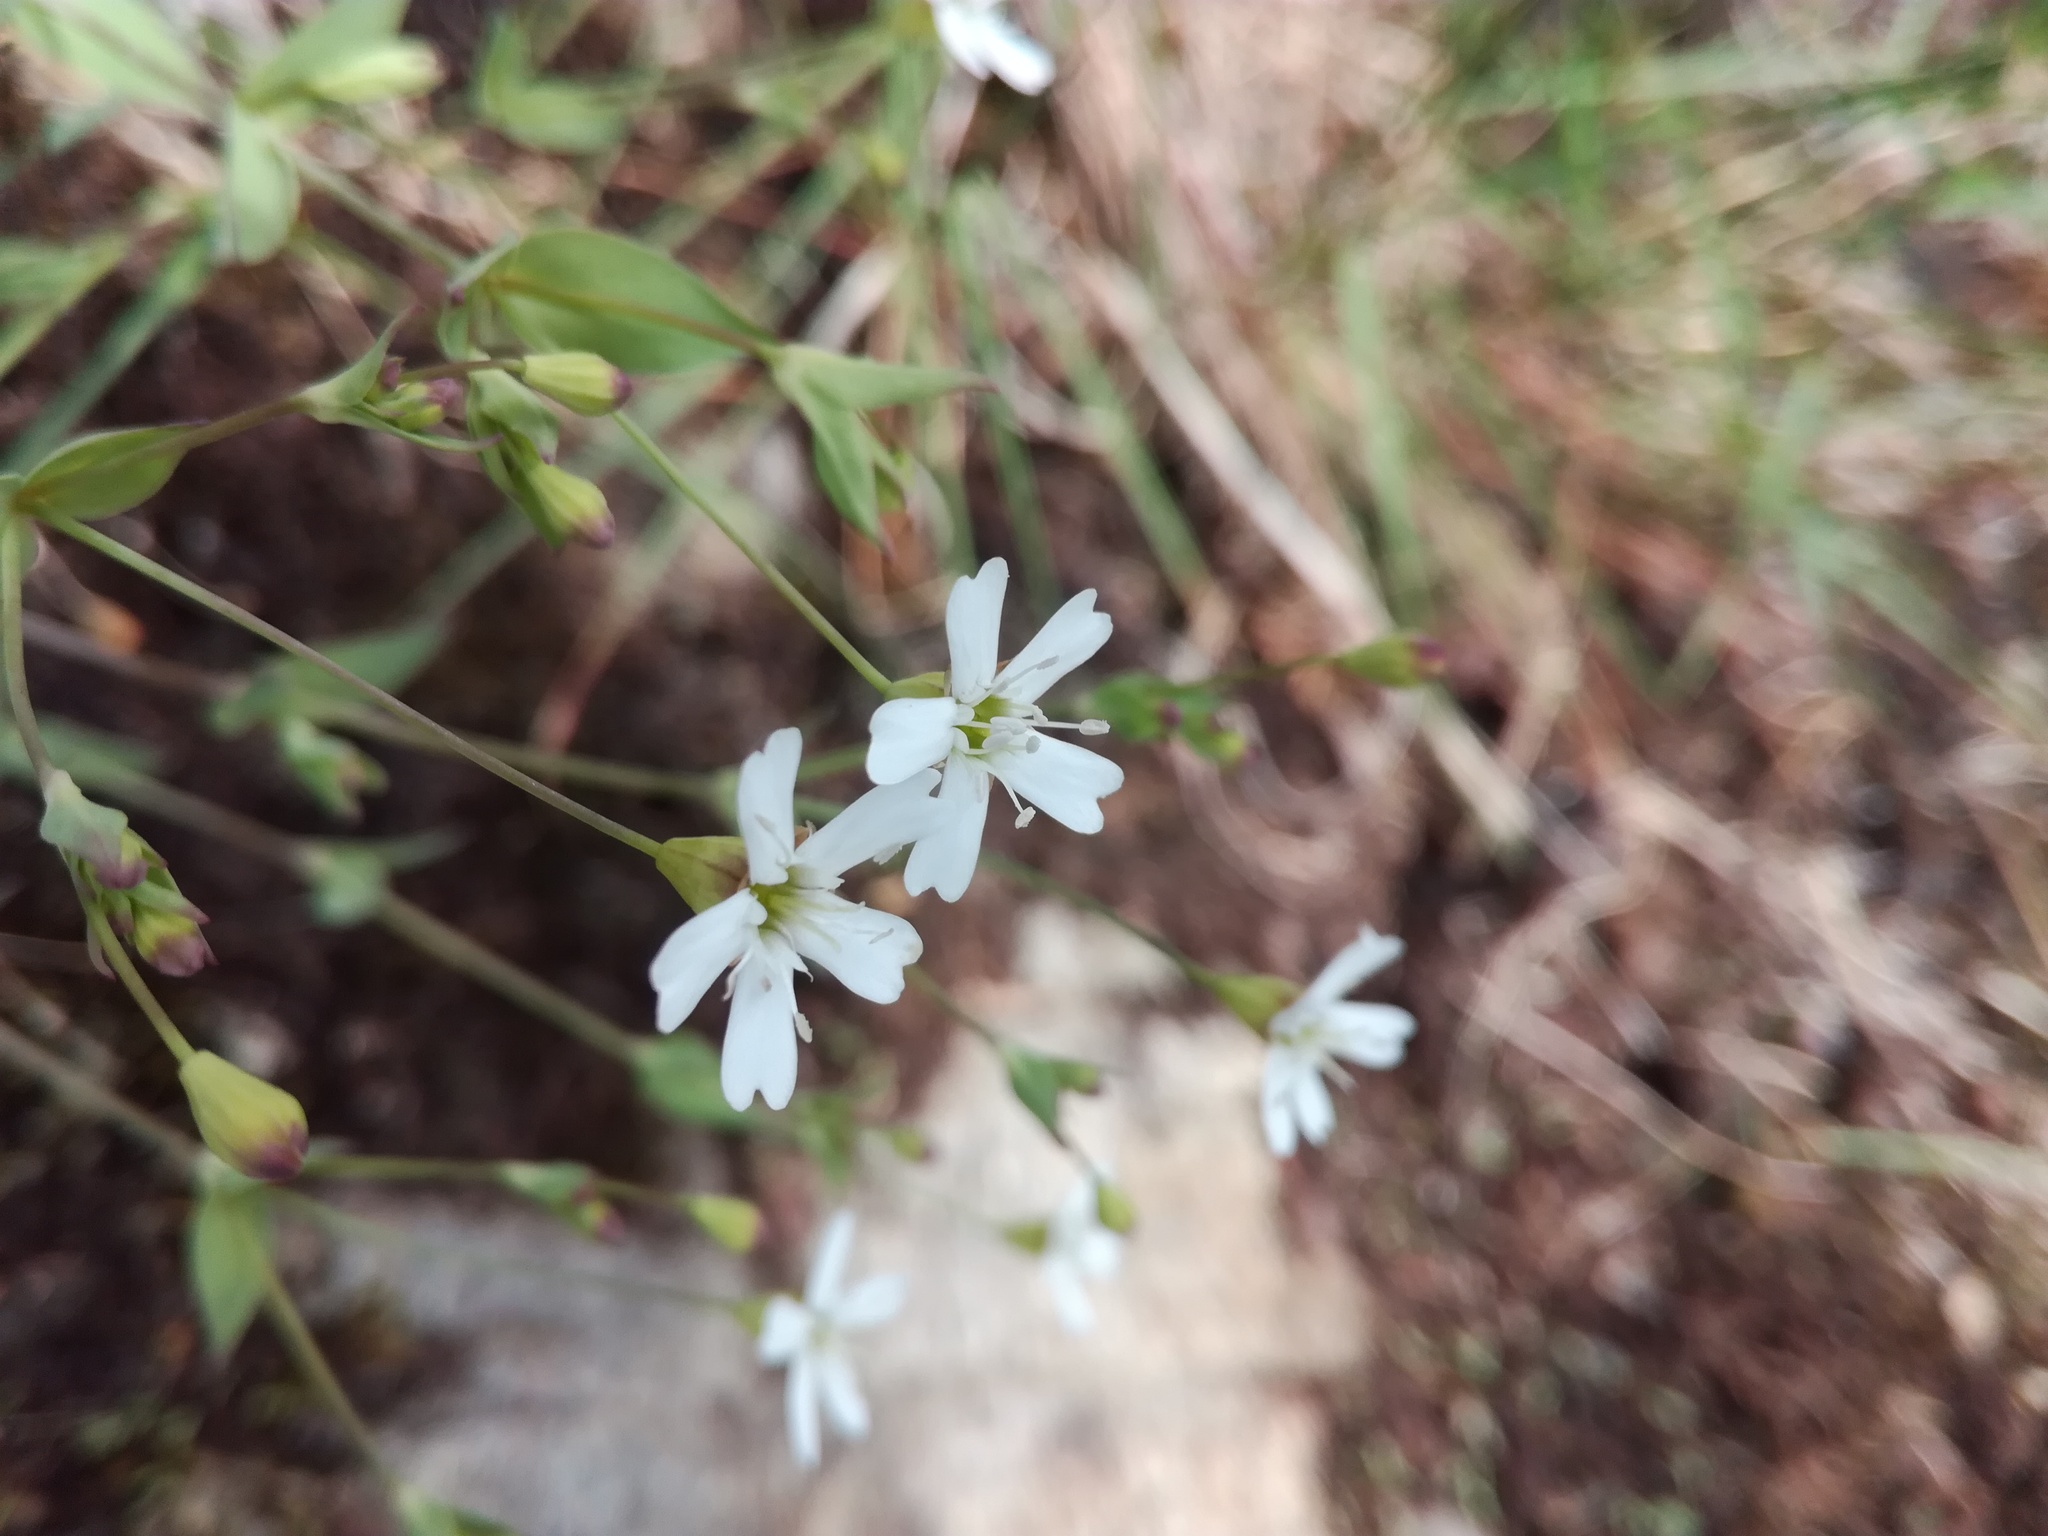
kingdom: Plantae
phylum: Tracheophyta
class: Magnoliopsida
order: Caryophyllales
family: Caryophyllaceae
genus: Atocion
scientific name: Atocion rupestre
